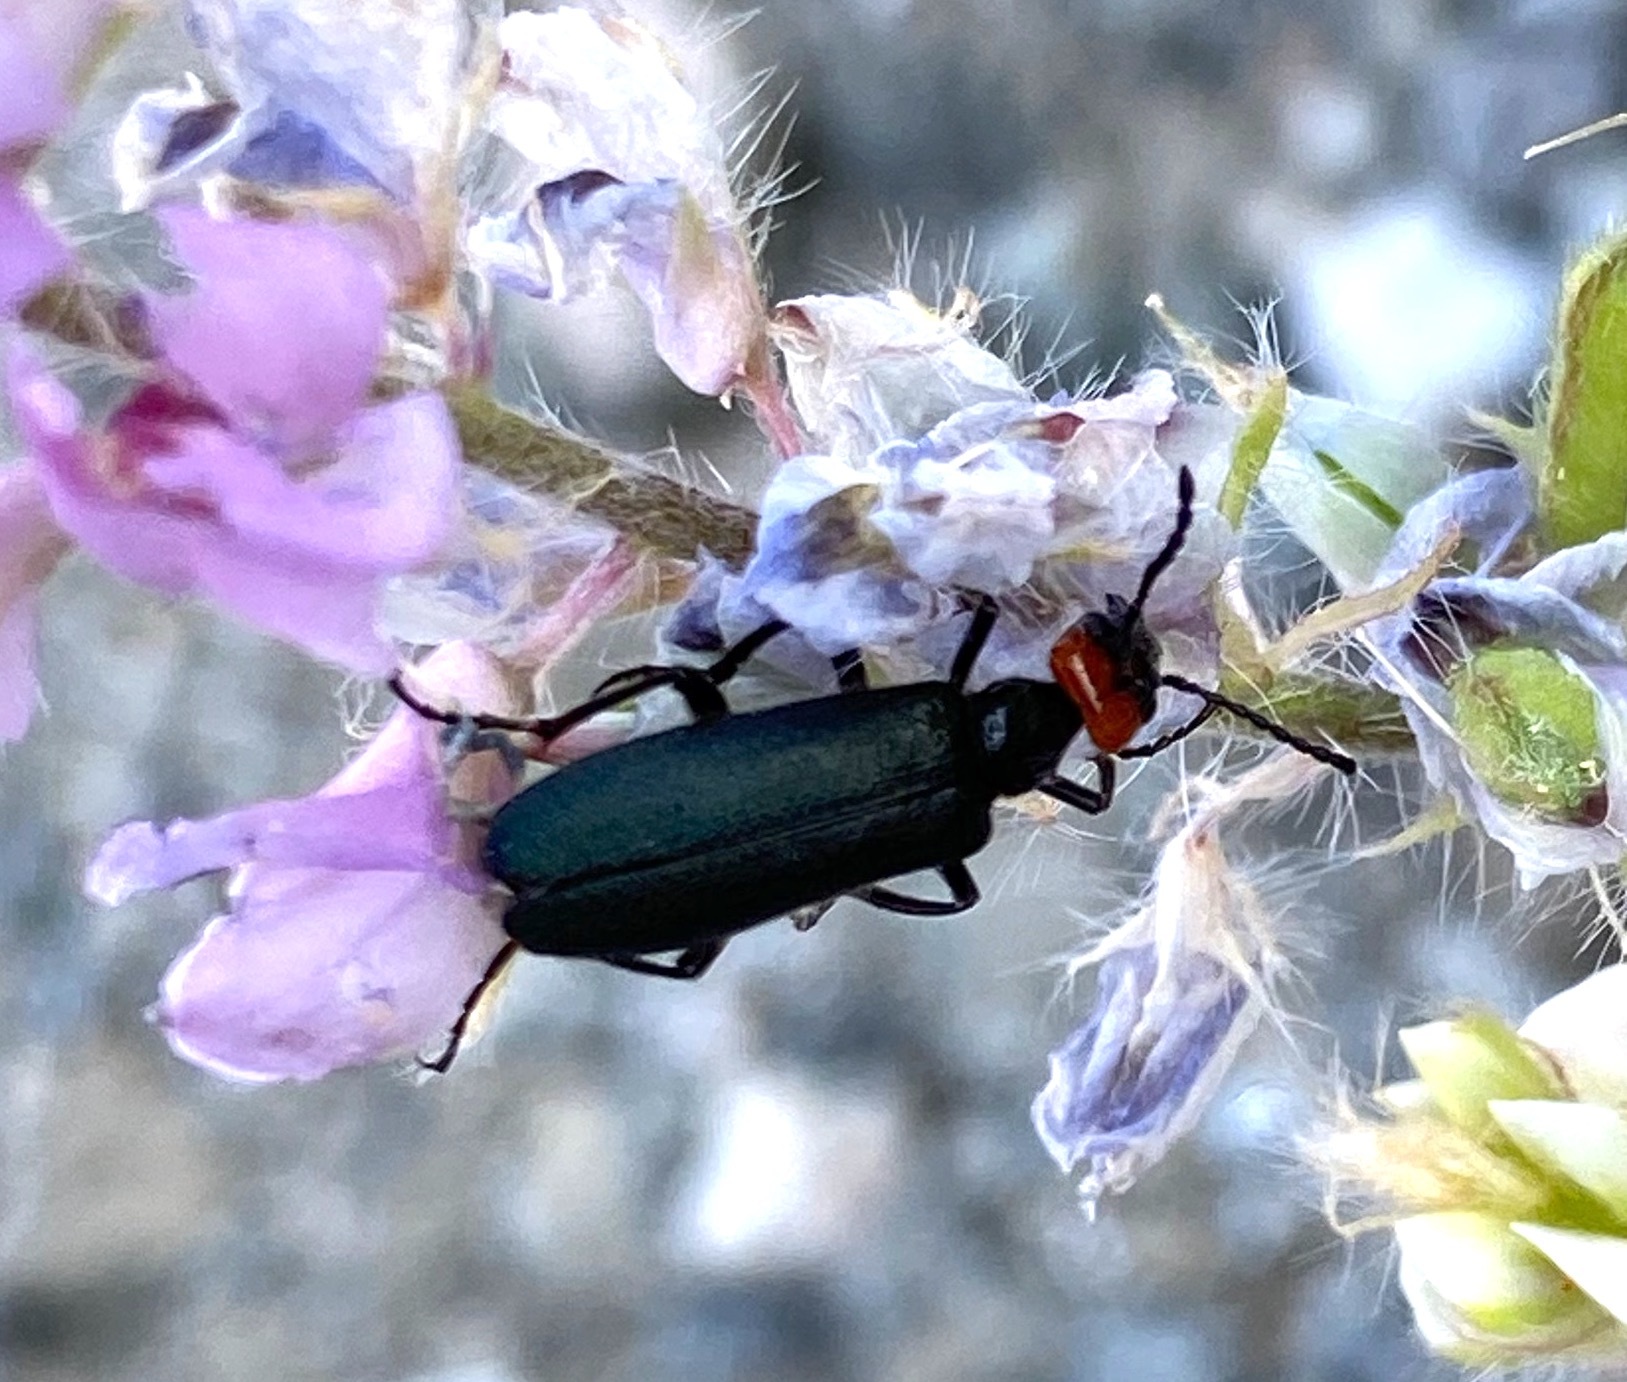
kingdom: Animalia
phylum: Arthropoda
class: Insecta
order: Coleoptera
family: Meloidae
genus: Lytta
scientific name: Lytta auriculata
